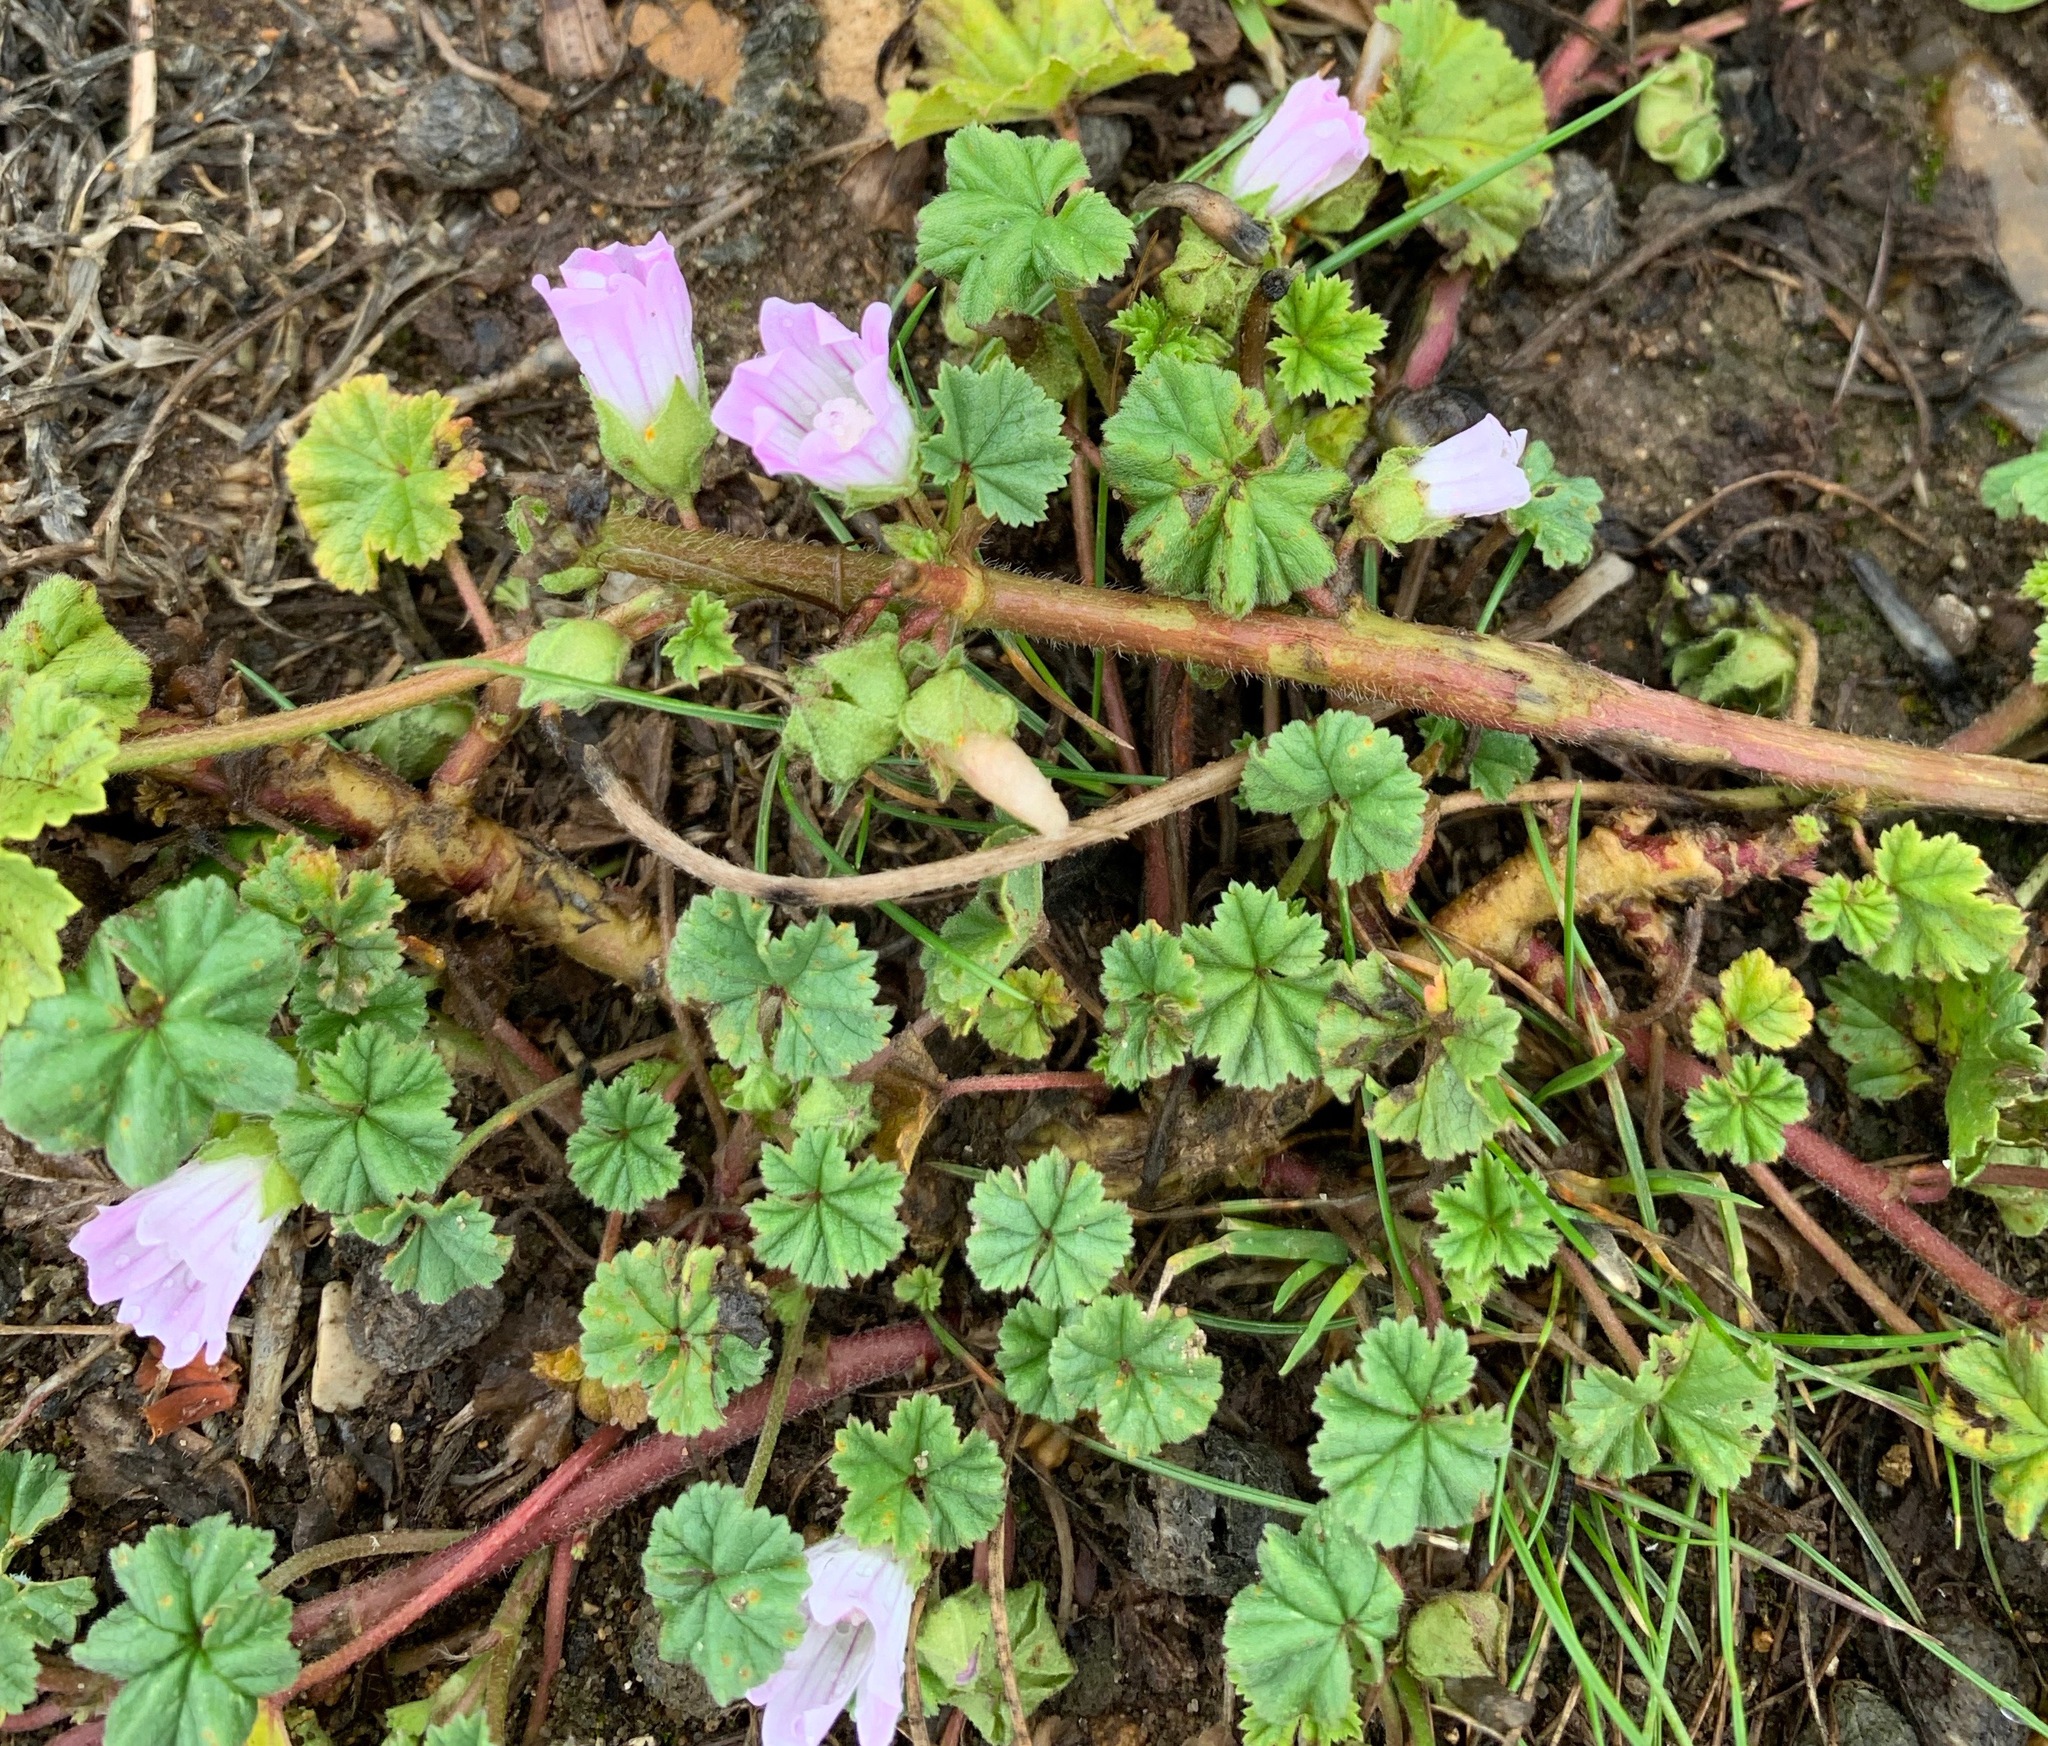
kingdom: Plantae
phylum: Tracheophyta
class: Magnoliopsida
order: Malvales
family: Malvaceae
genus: Malva
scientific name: Malva neglecta
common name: Common mallow
